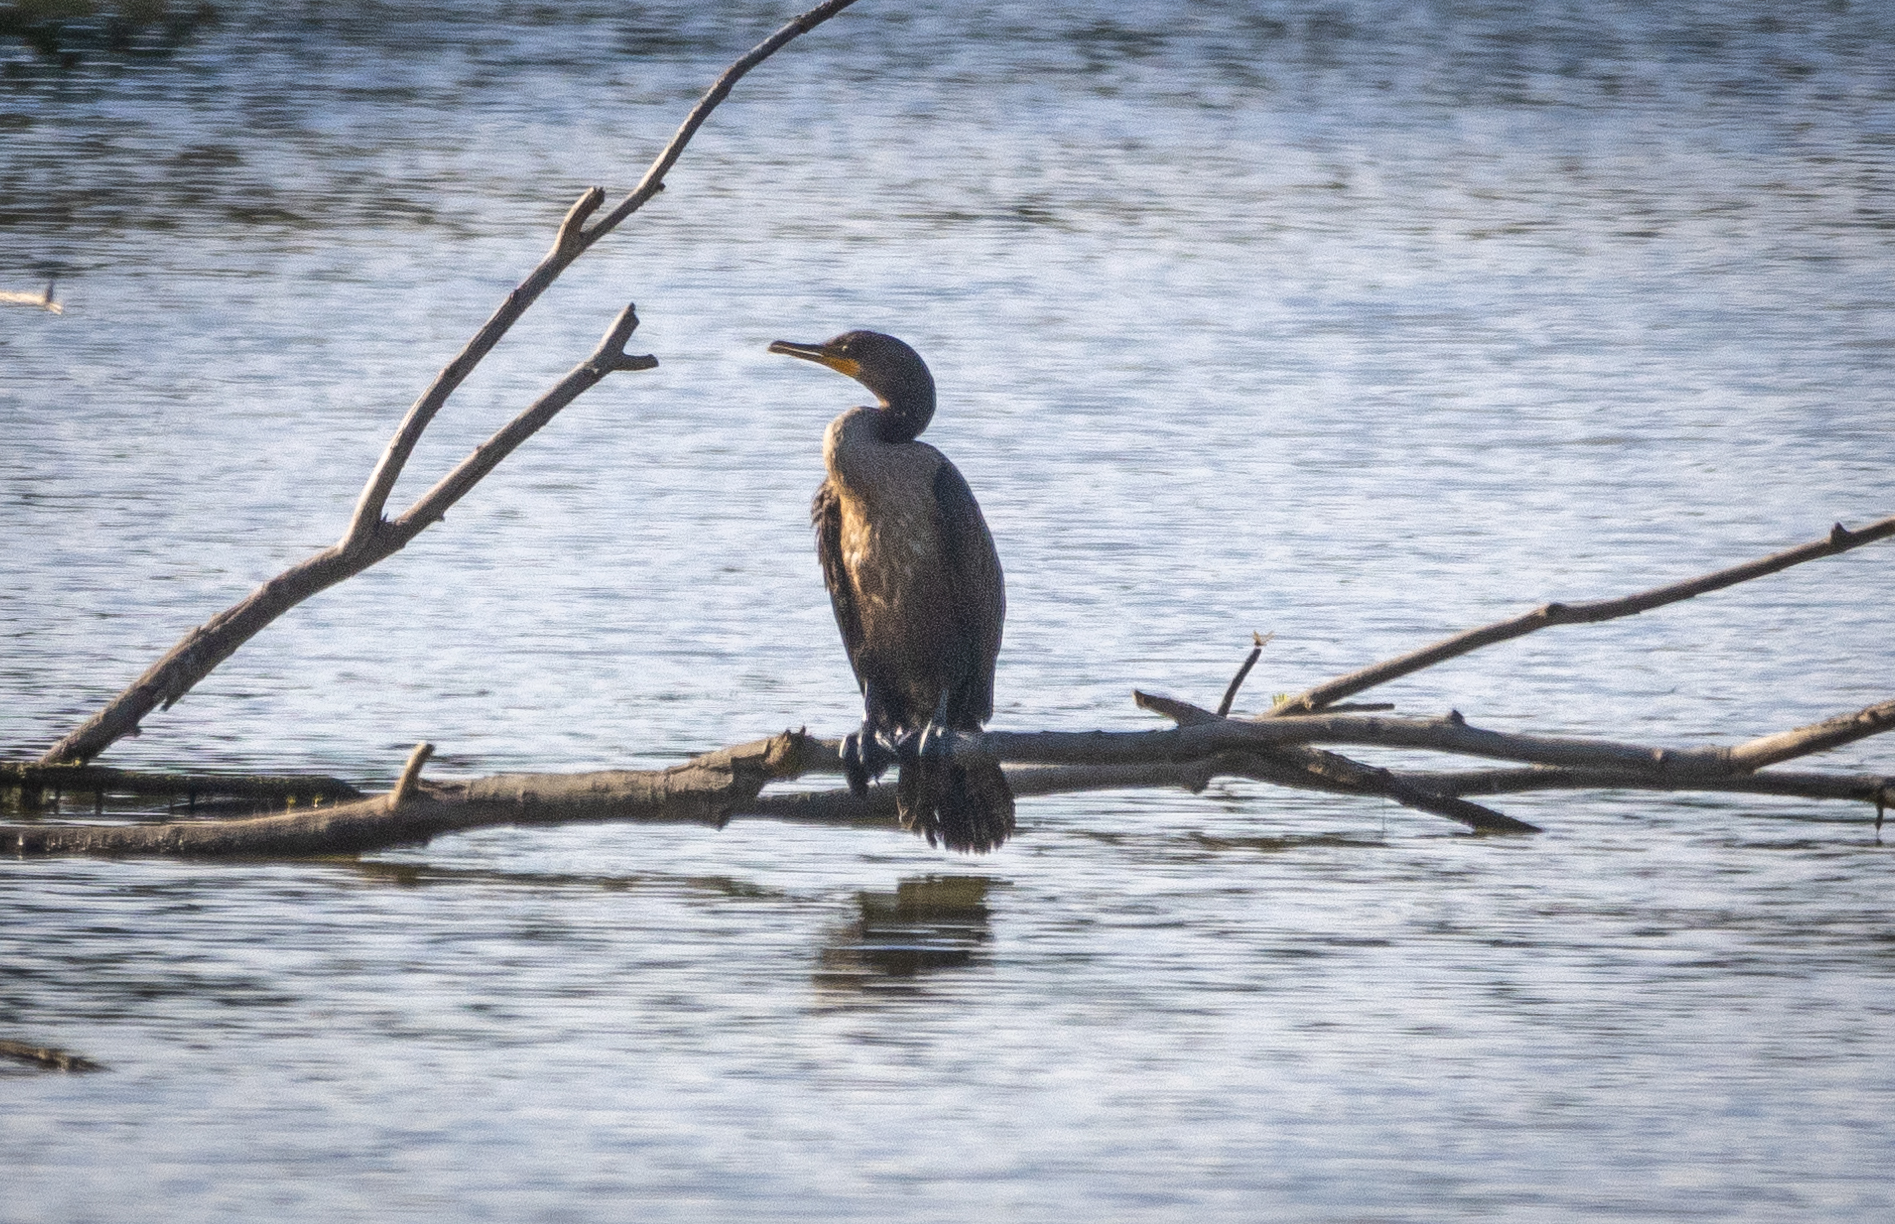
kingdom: Animalia
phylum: Chordata
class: Aves
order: Suliformes
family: Phalacrocoracidae
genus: Phalacrocorax
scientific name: Phalacrocorax auritus
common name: Double-crested cormorant
